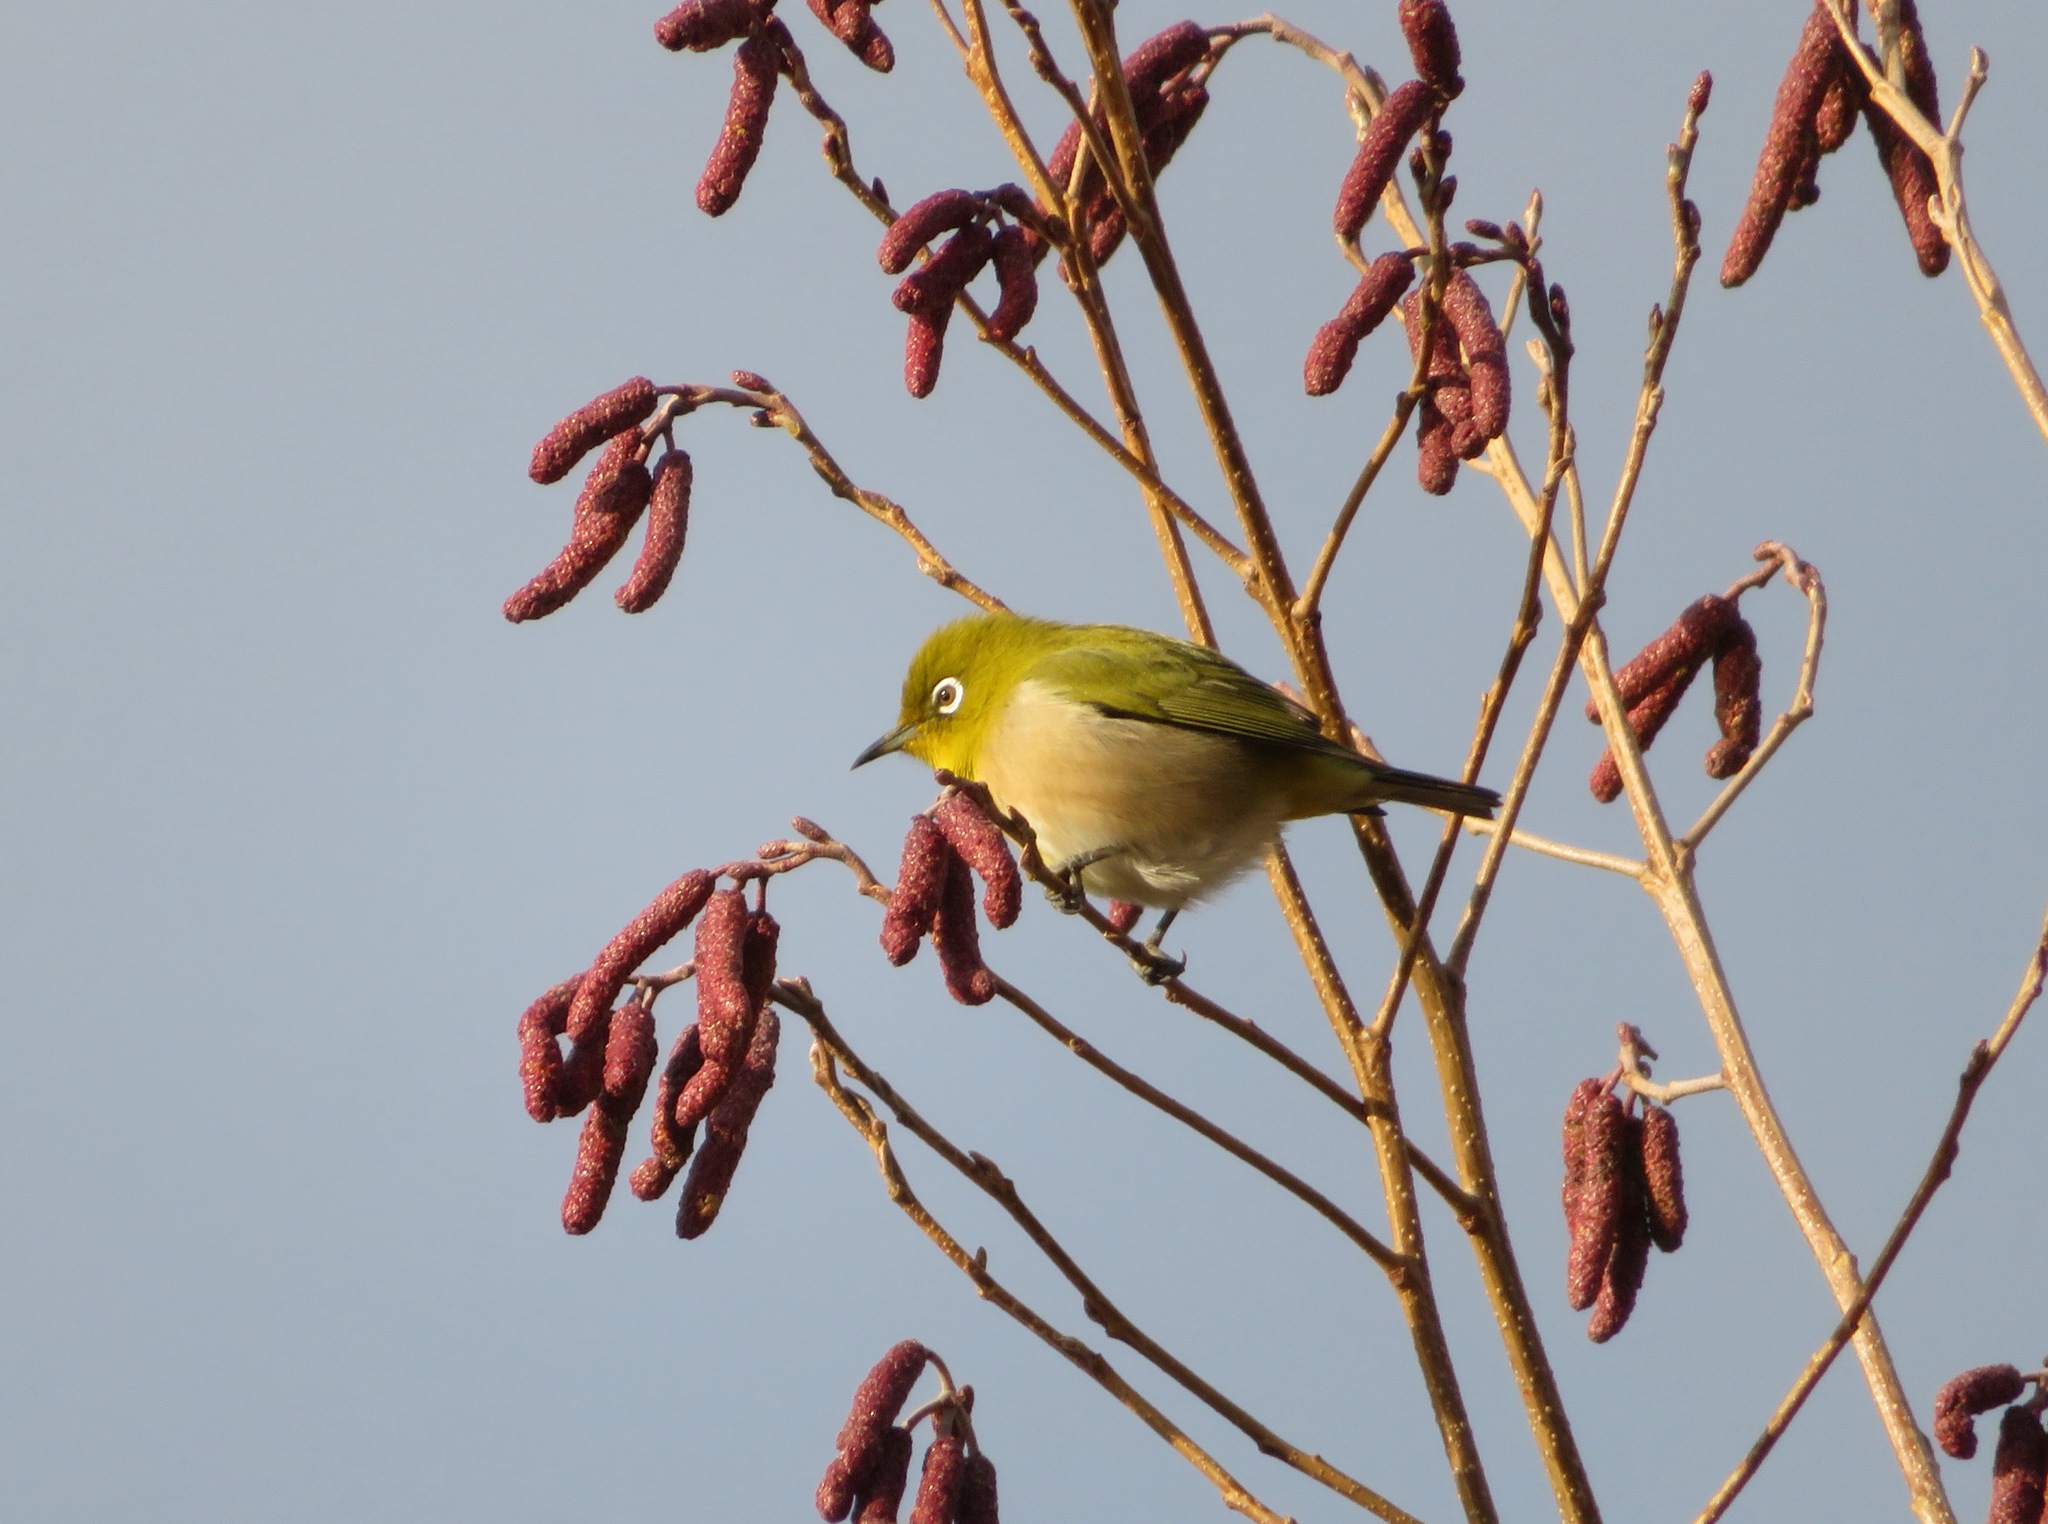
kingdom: Animalia
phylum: Chordata
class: Aves
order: Passeriformes
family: Zosteropidae
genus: Zosterops
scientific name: Zosterops japonicus
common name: Japanese white-eye
